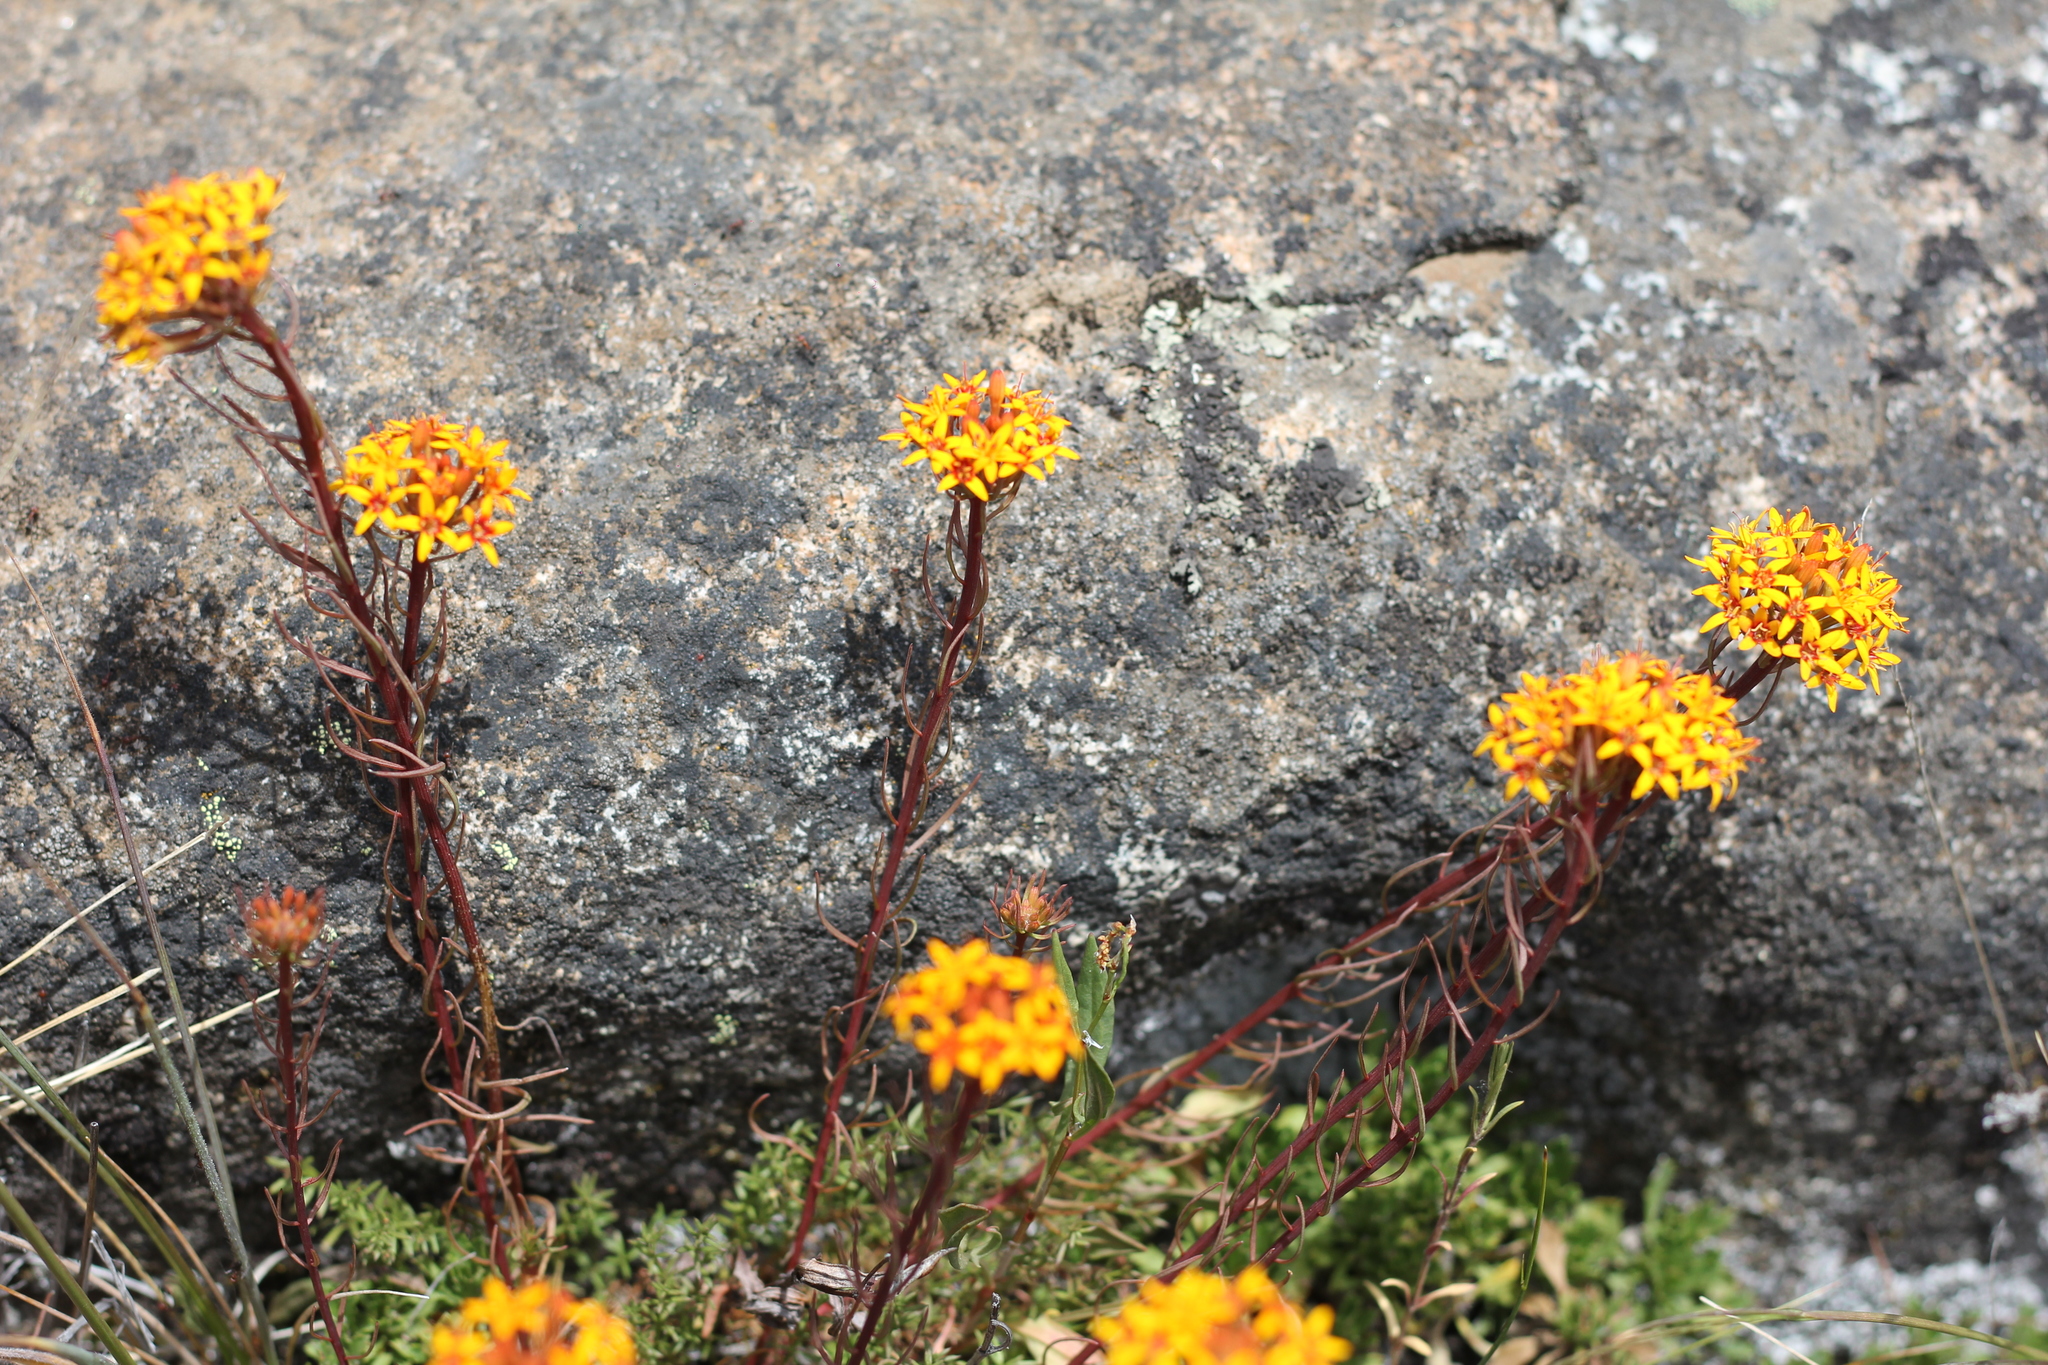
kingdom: Plantae
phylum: Tracheophyta
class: Magnoliopsida
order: Santalales
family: Schoepfiaceae
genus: Quinchamalium
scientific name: Quinchamalium chilense
